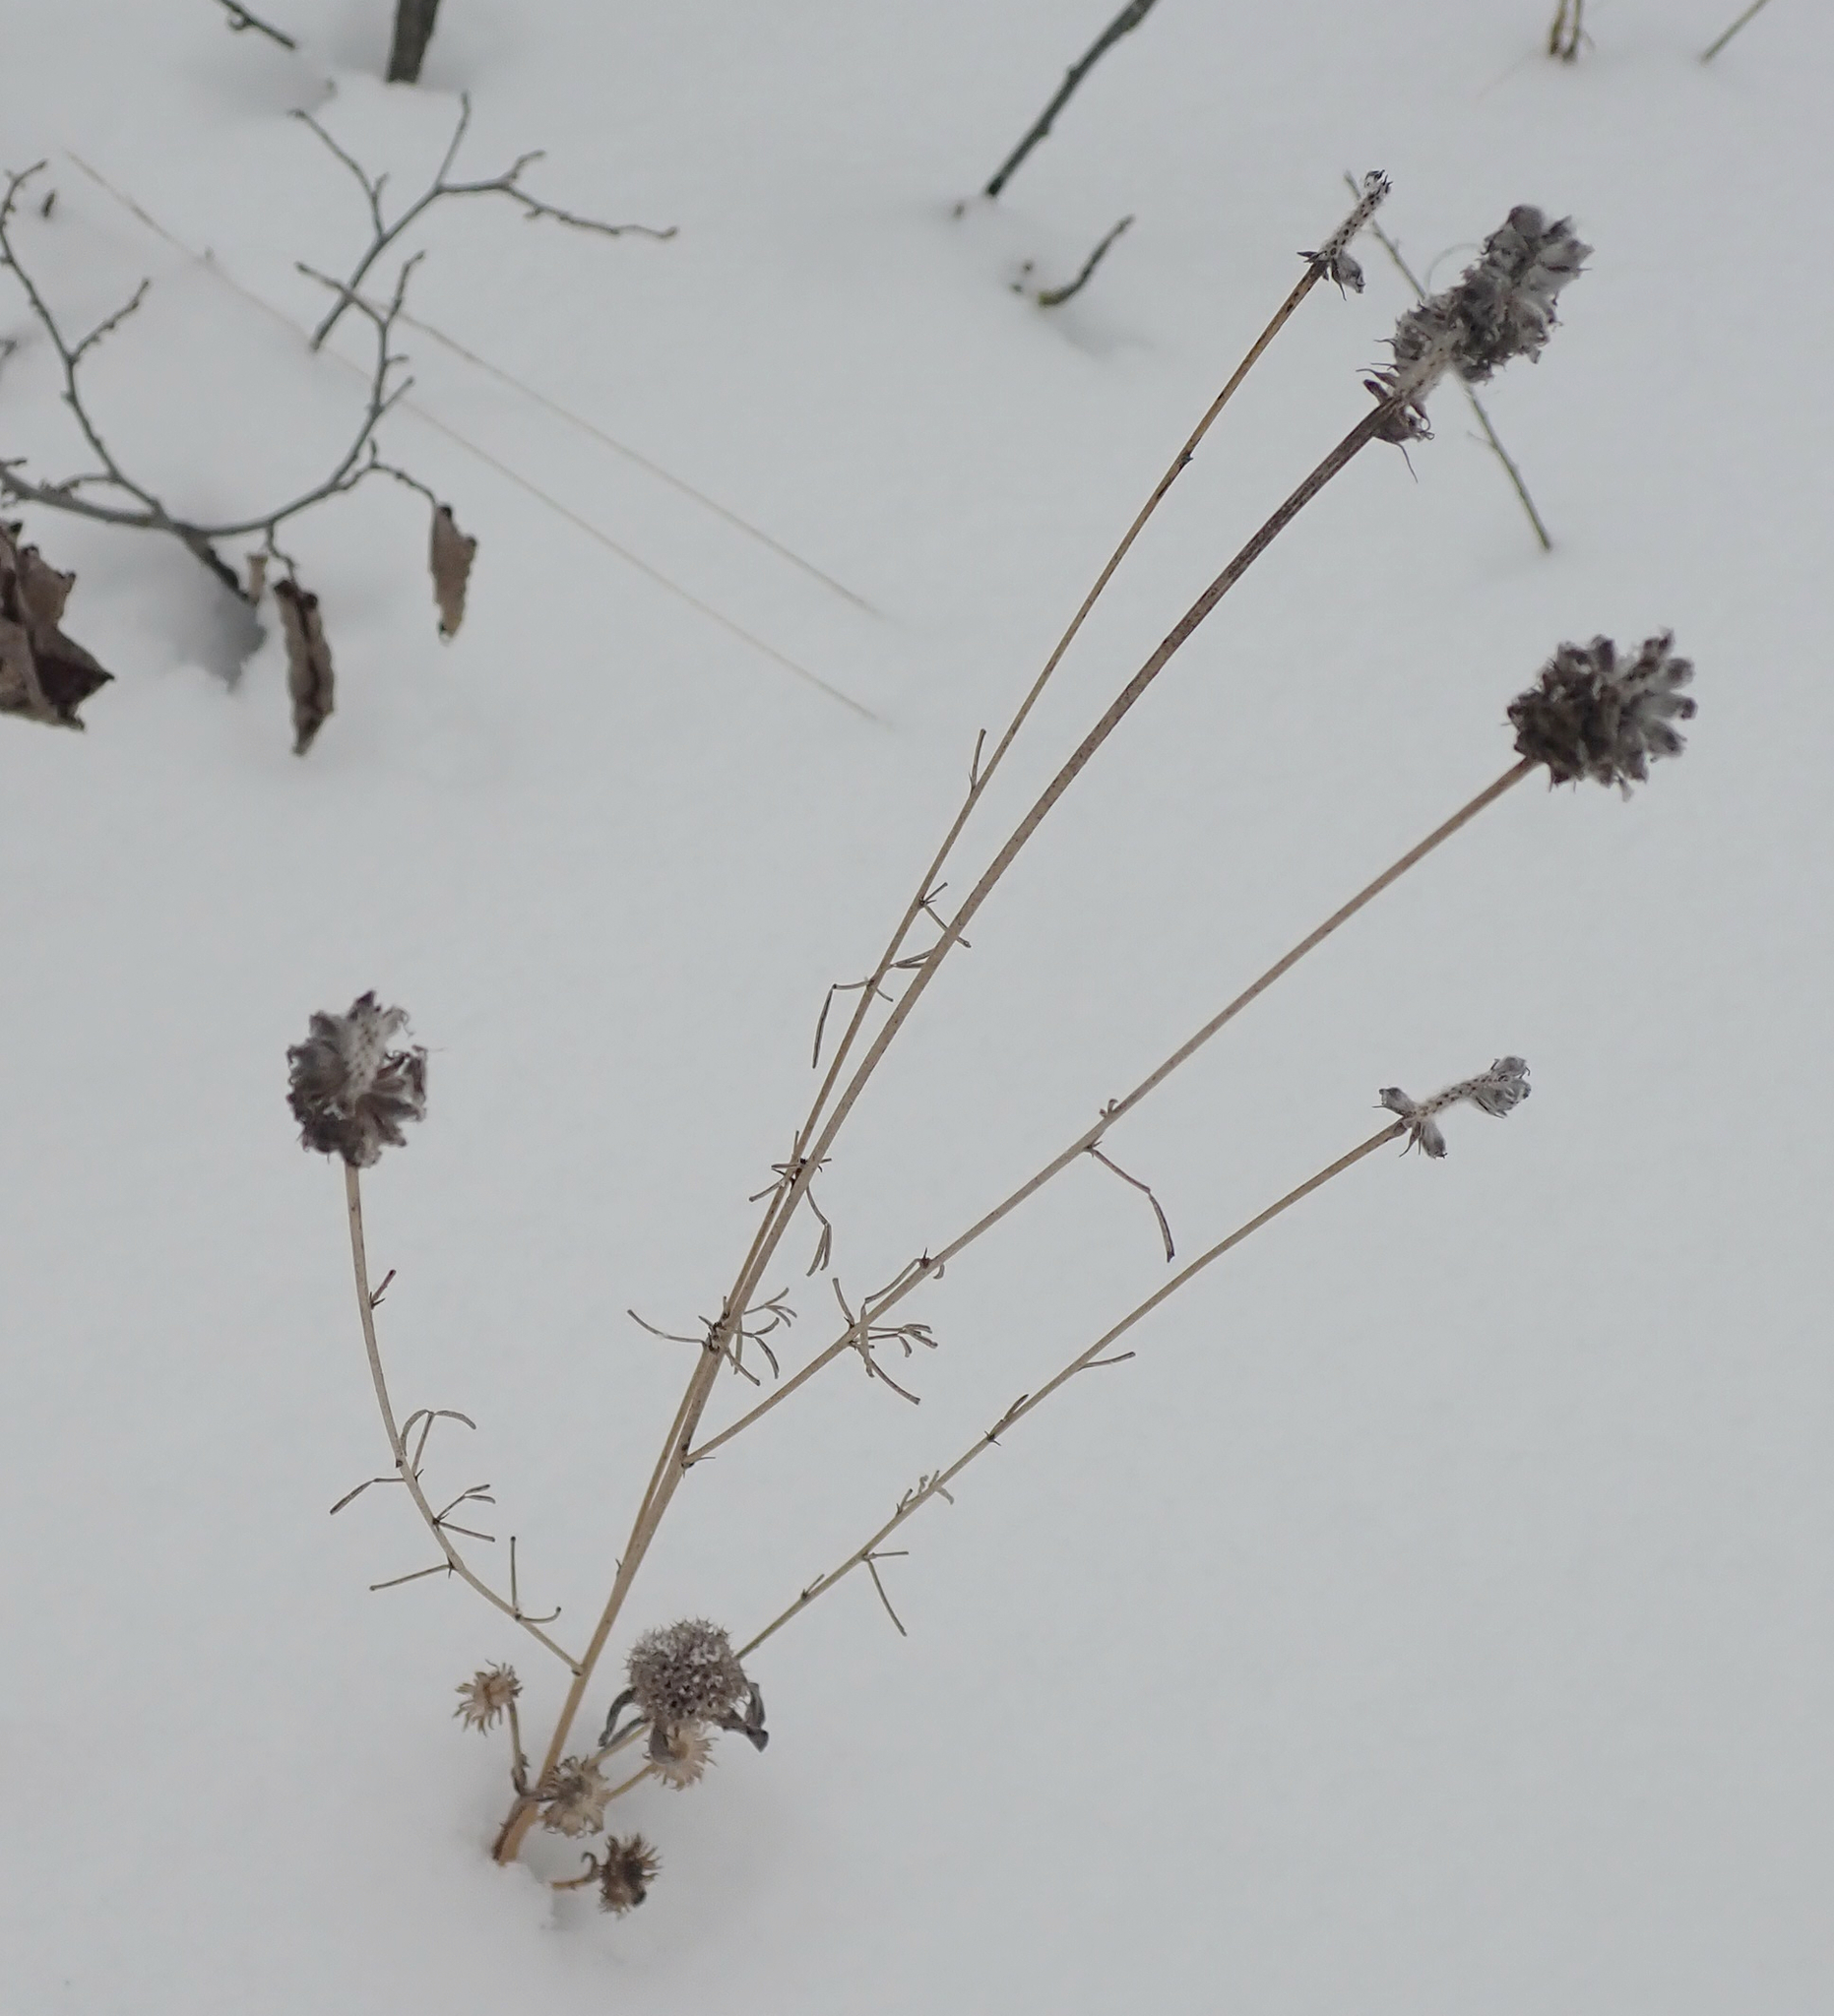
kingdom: Plantae
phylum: Tracheophyta
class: Magnoliopsida
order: Fabales
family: Fabaceae
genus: Dalea
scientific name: Dalea purpurea
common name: Purple prairie-clover
